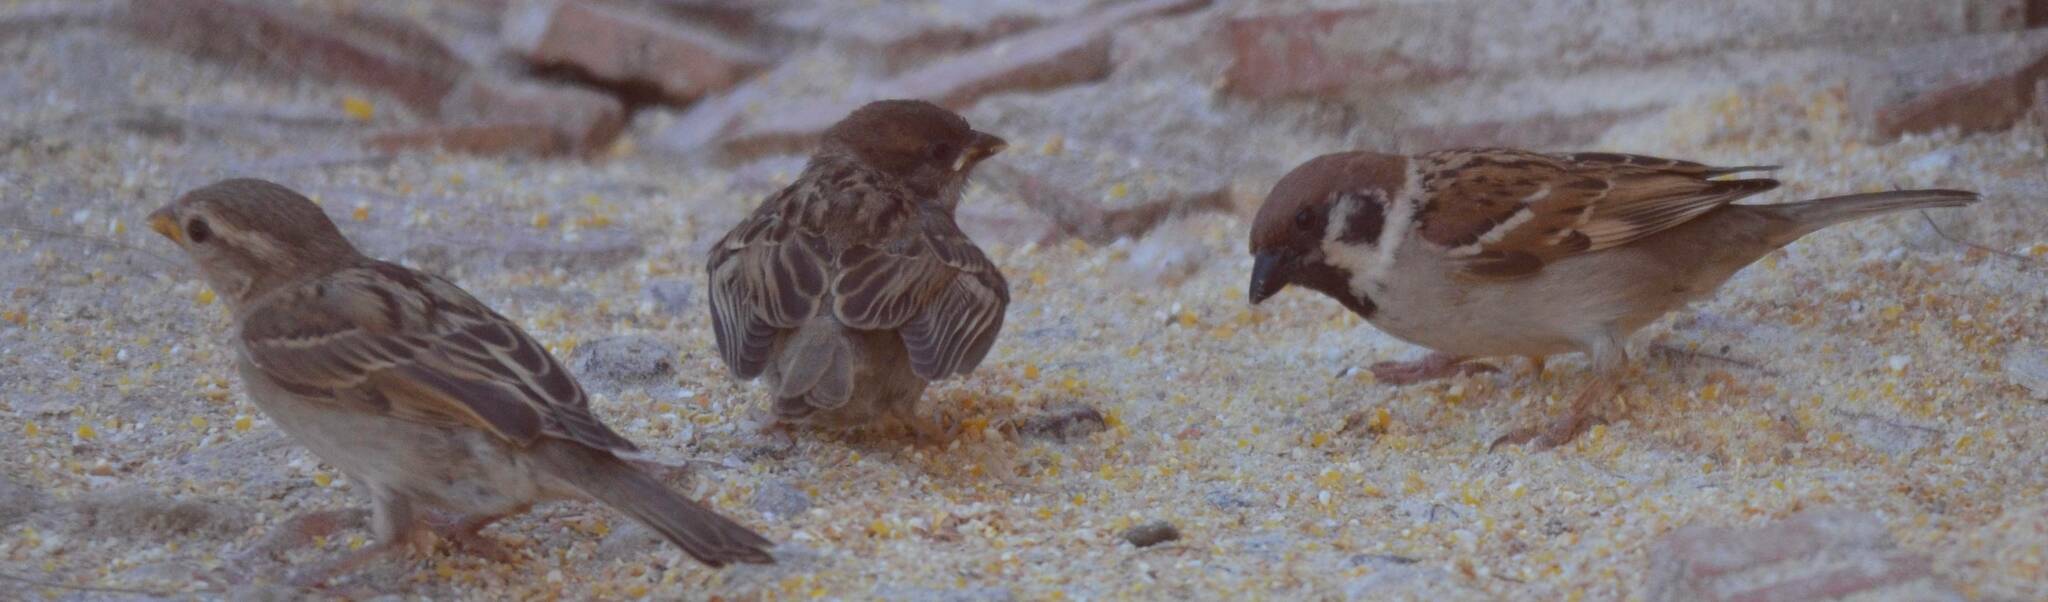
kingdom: Animalia
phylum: Chordata
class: Aves
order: Passeriformes
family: Passeridae
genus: Passer
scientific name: Passer montanus
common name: Eurasian tree sparrow
